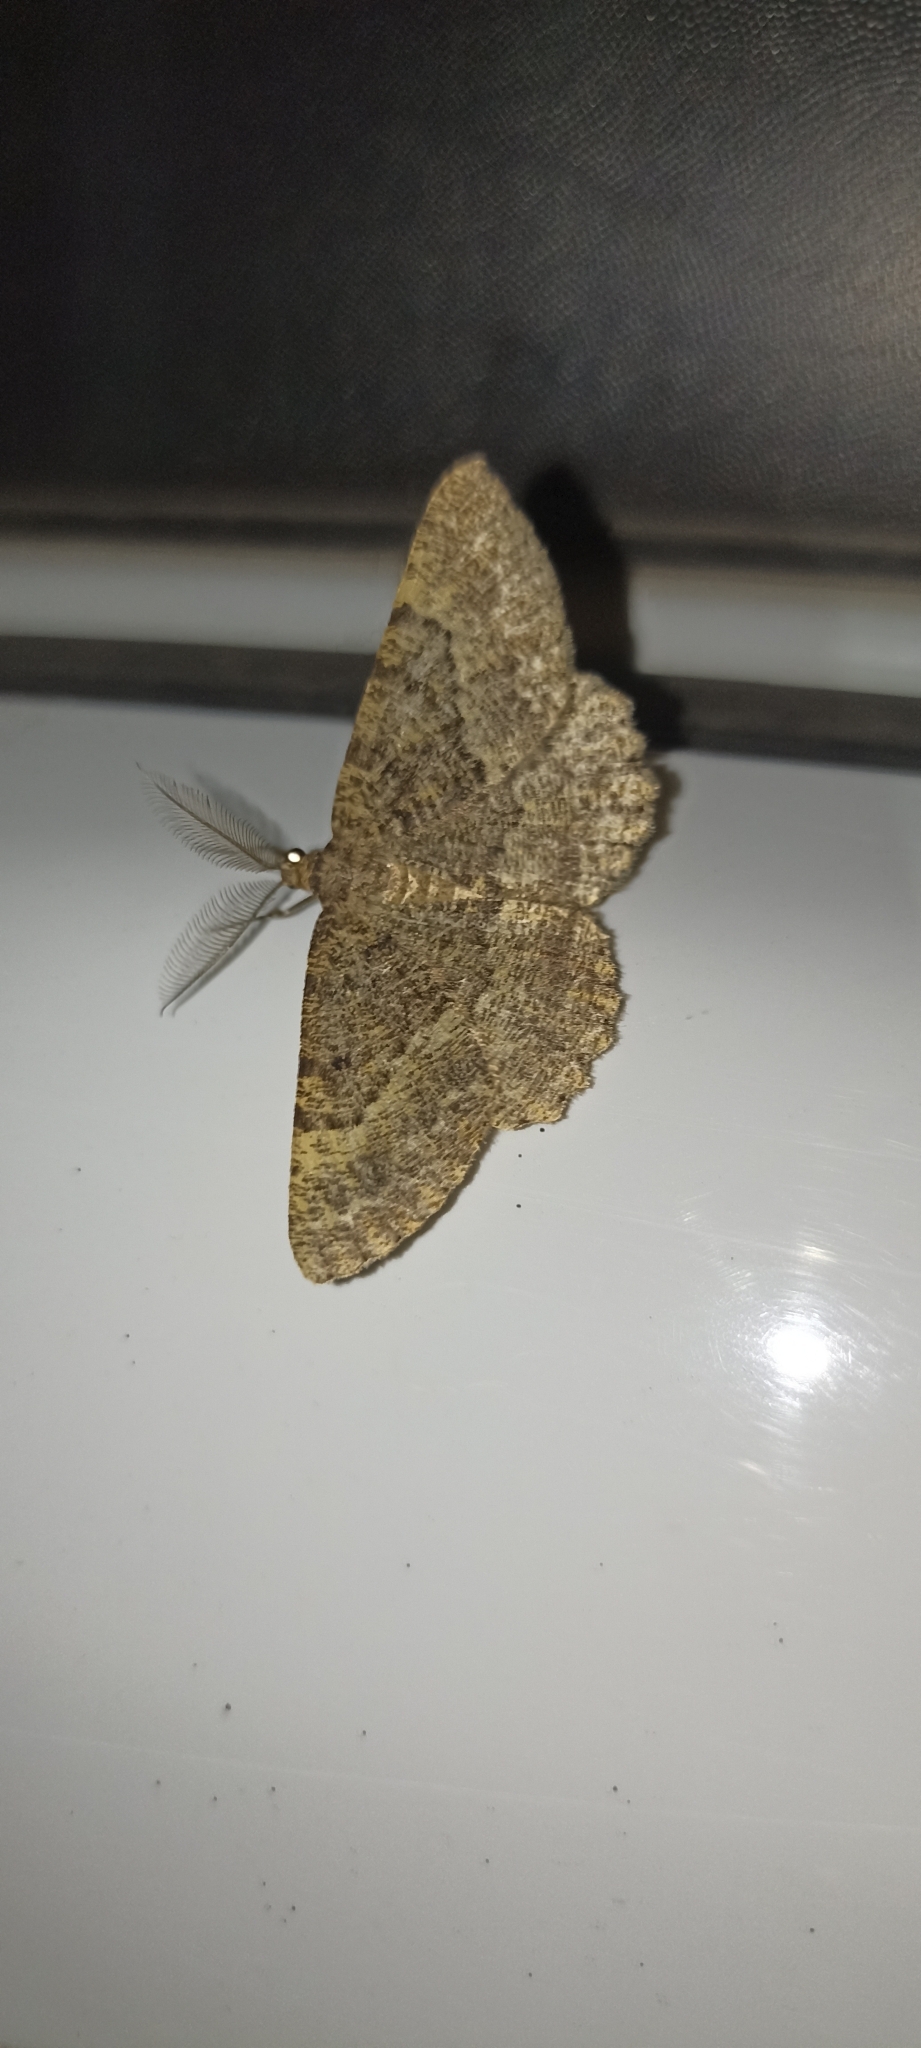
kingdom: Animalia
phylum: Arthropoda
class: Insecta
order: Lepidoptera
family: Geometridae
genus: Selidosema
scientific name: Selidosema taeniolaria
